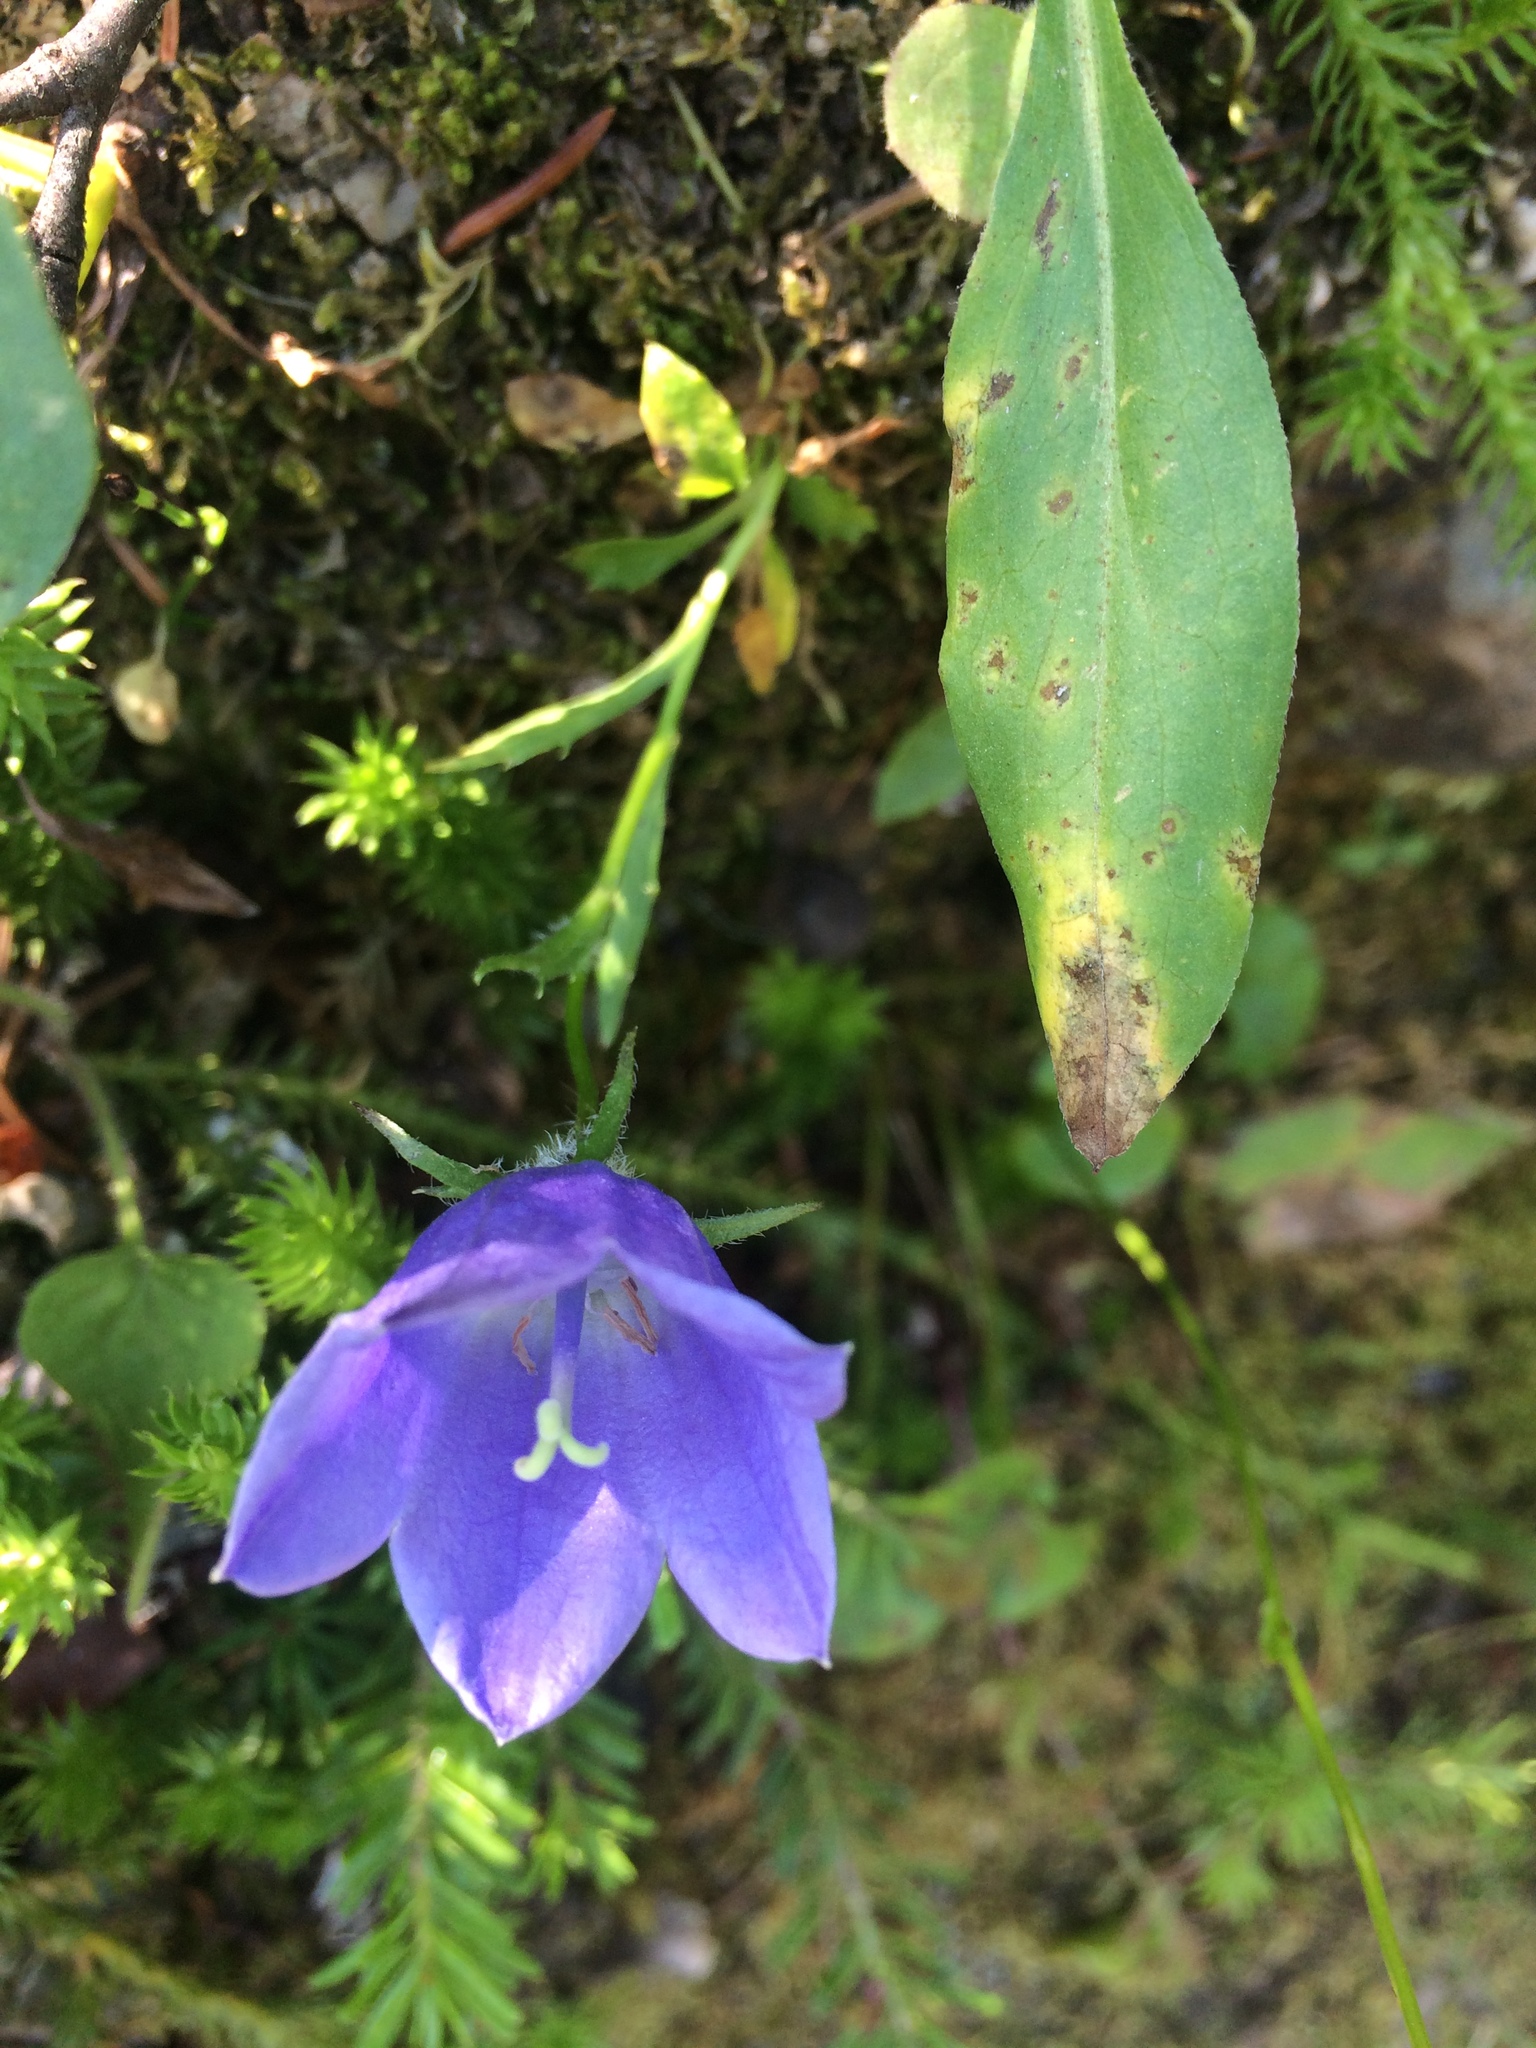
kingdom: Plantae
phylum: Tracheophyta
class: Magnoliopsida
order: Asterales
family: Campanulaceae
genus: Campanula
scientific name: Campanula lasiocarpa
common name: Mountain harebell
